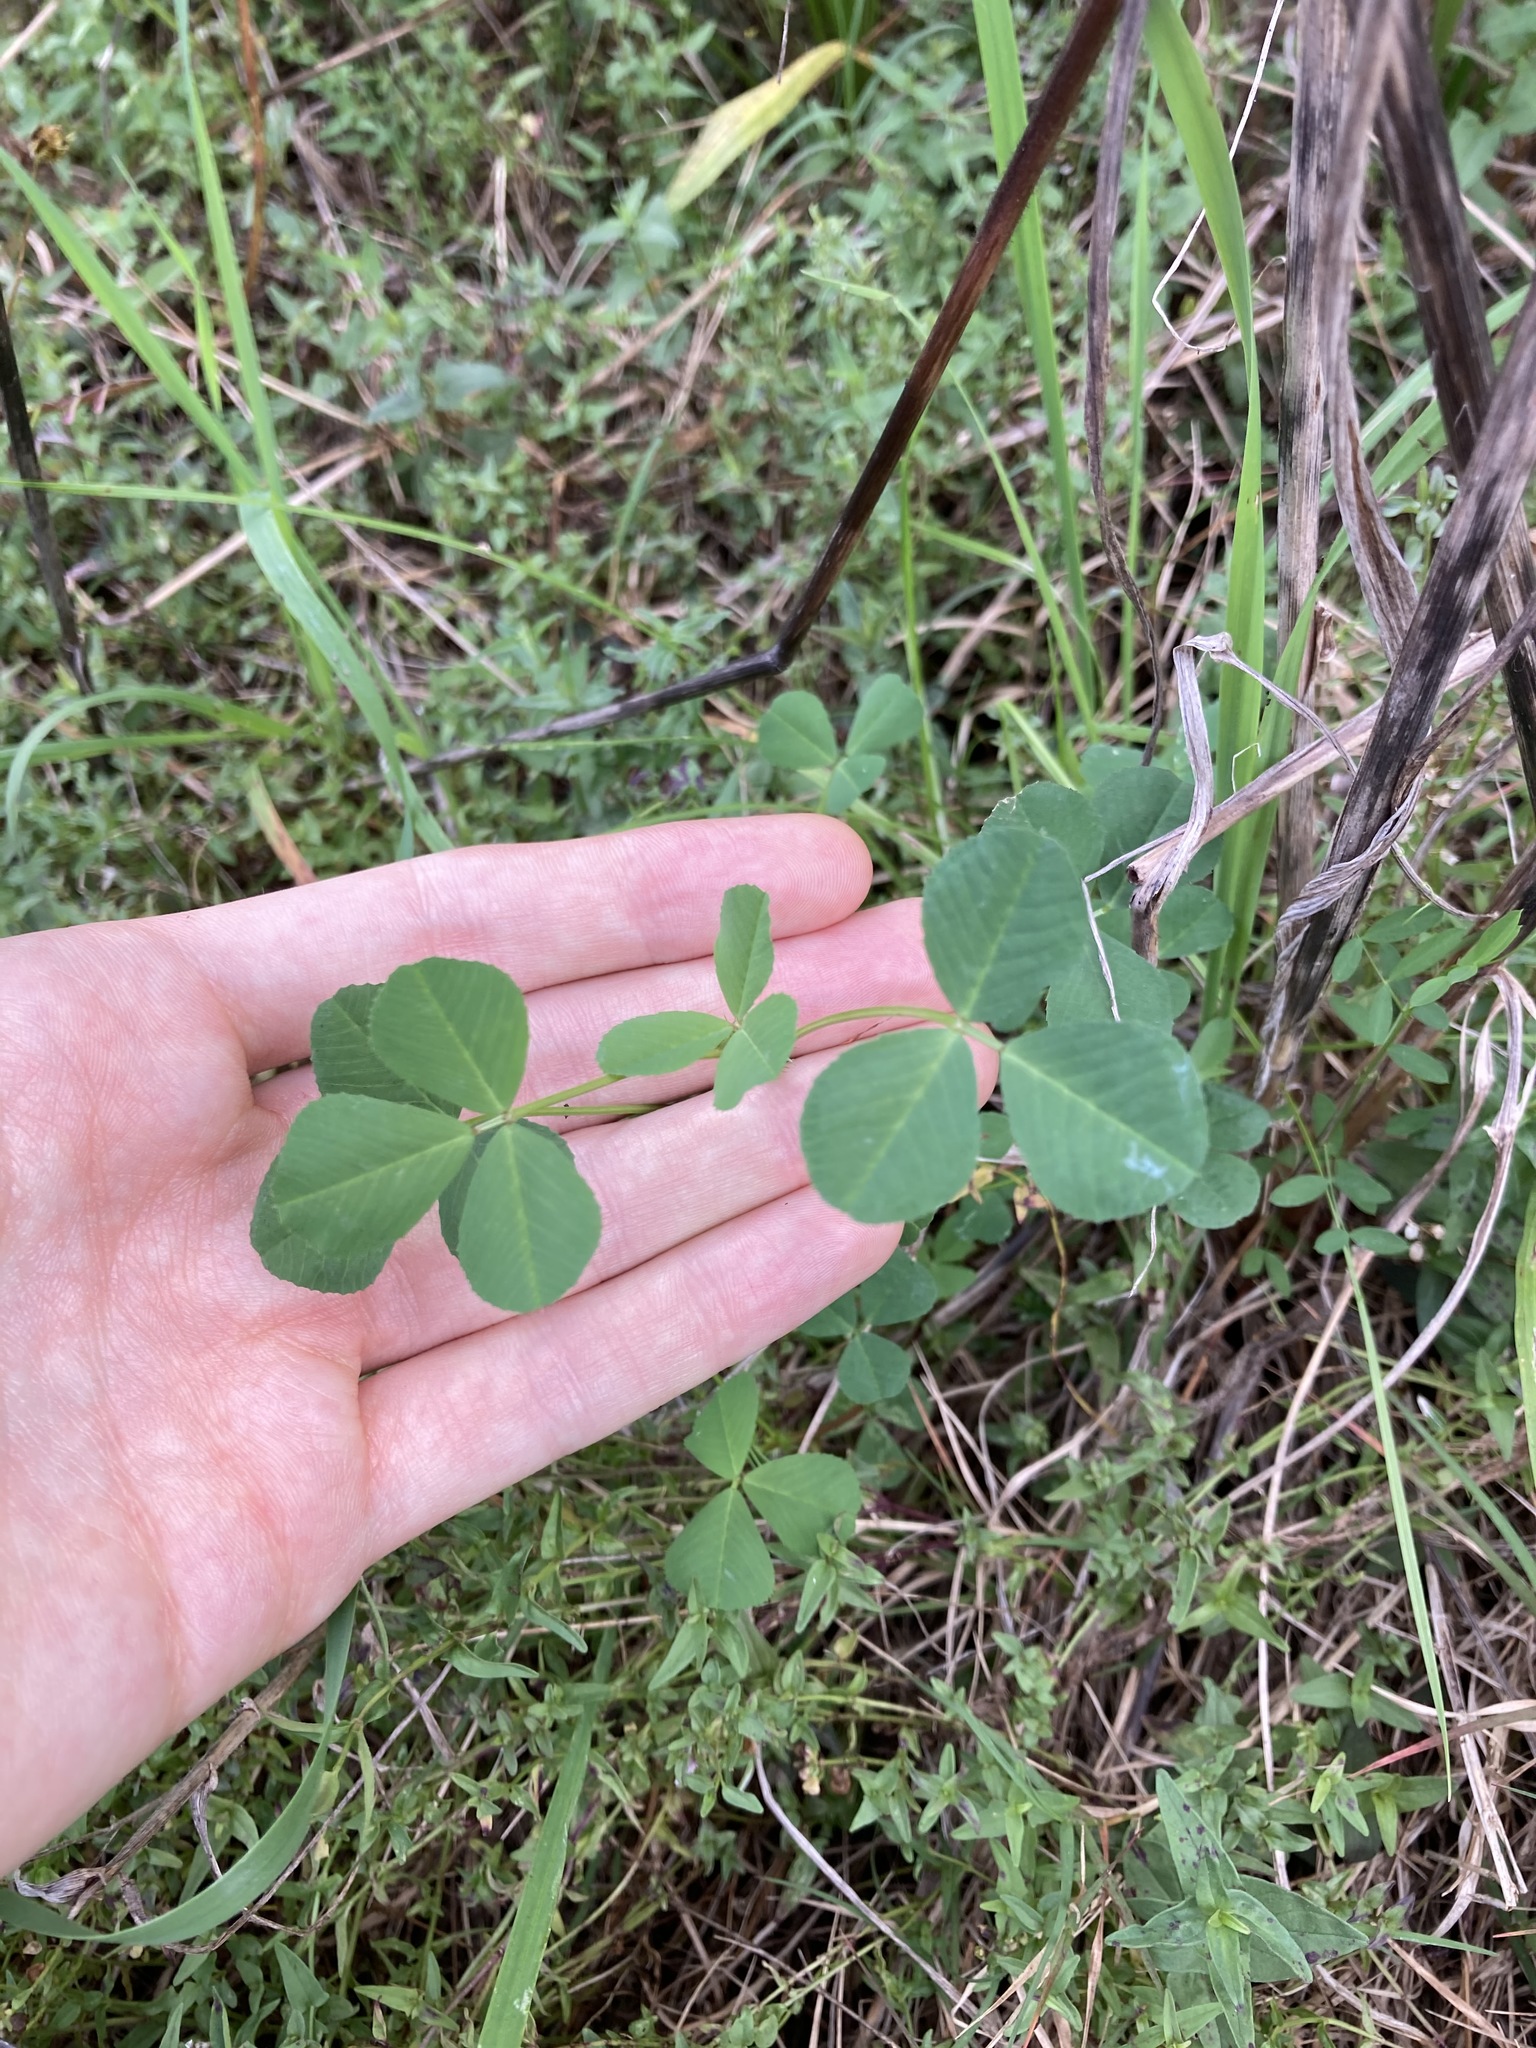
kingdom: Plantae
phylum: Tracheophyta
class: Magnoliopsida
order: Fabales
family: Fabaceae
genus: Medicago
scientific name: Medicago polymorpha
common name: Burclover
